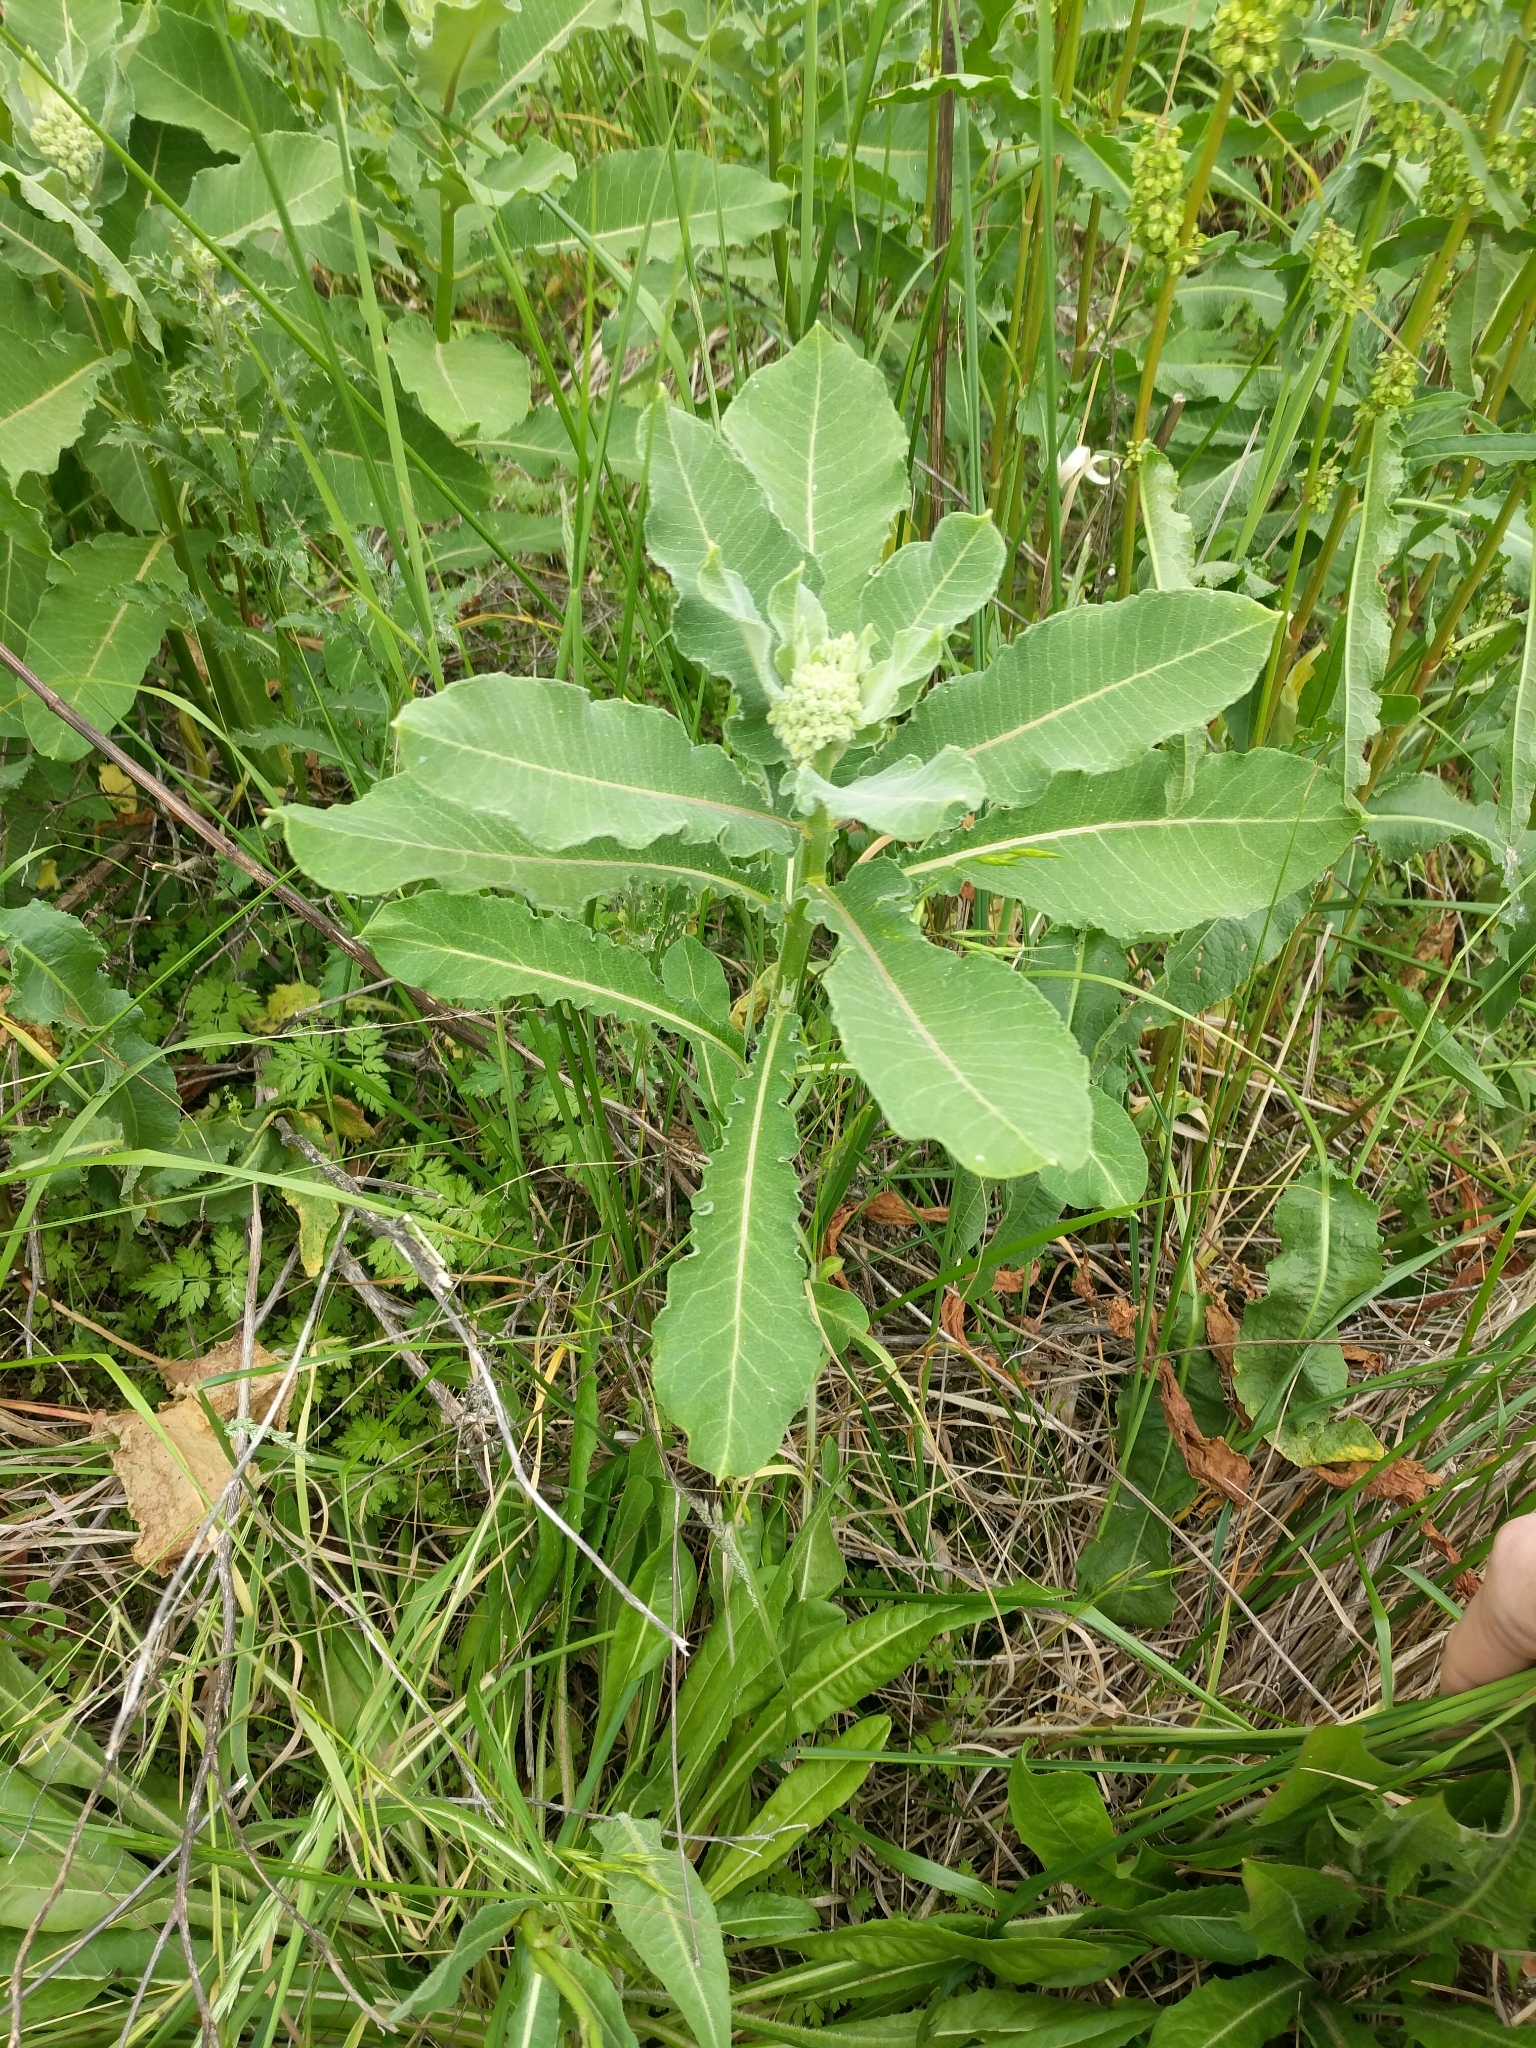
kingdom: Plantae
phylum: Tracheophyta
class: Magnoliopsida
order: Gentianales
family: Apocynaceae
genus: Asclepias
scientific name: Asclepias syriaca
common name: Common milkweed
